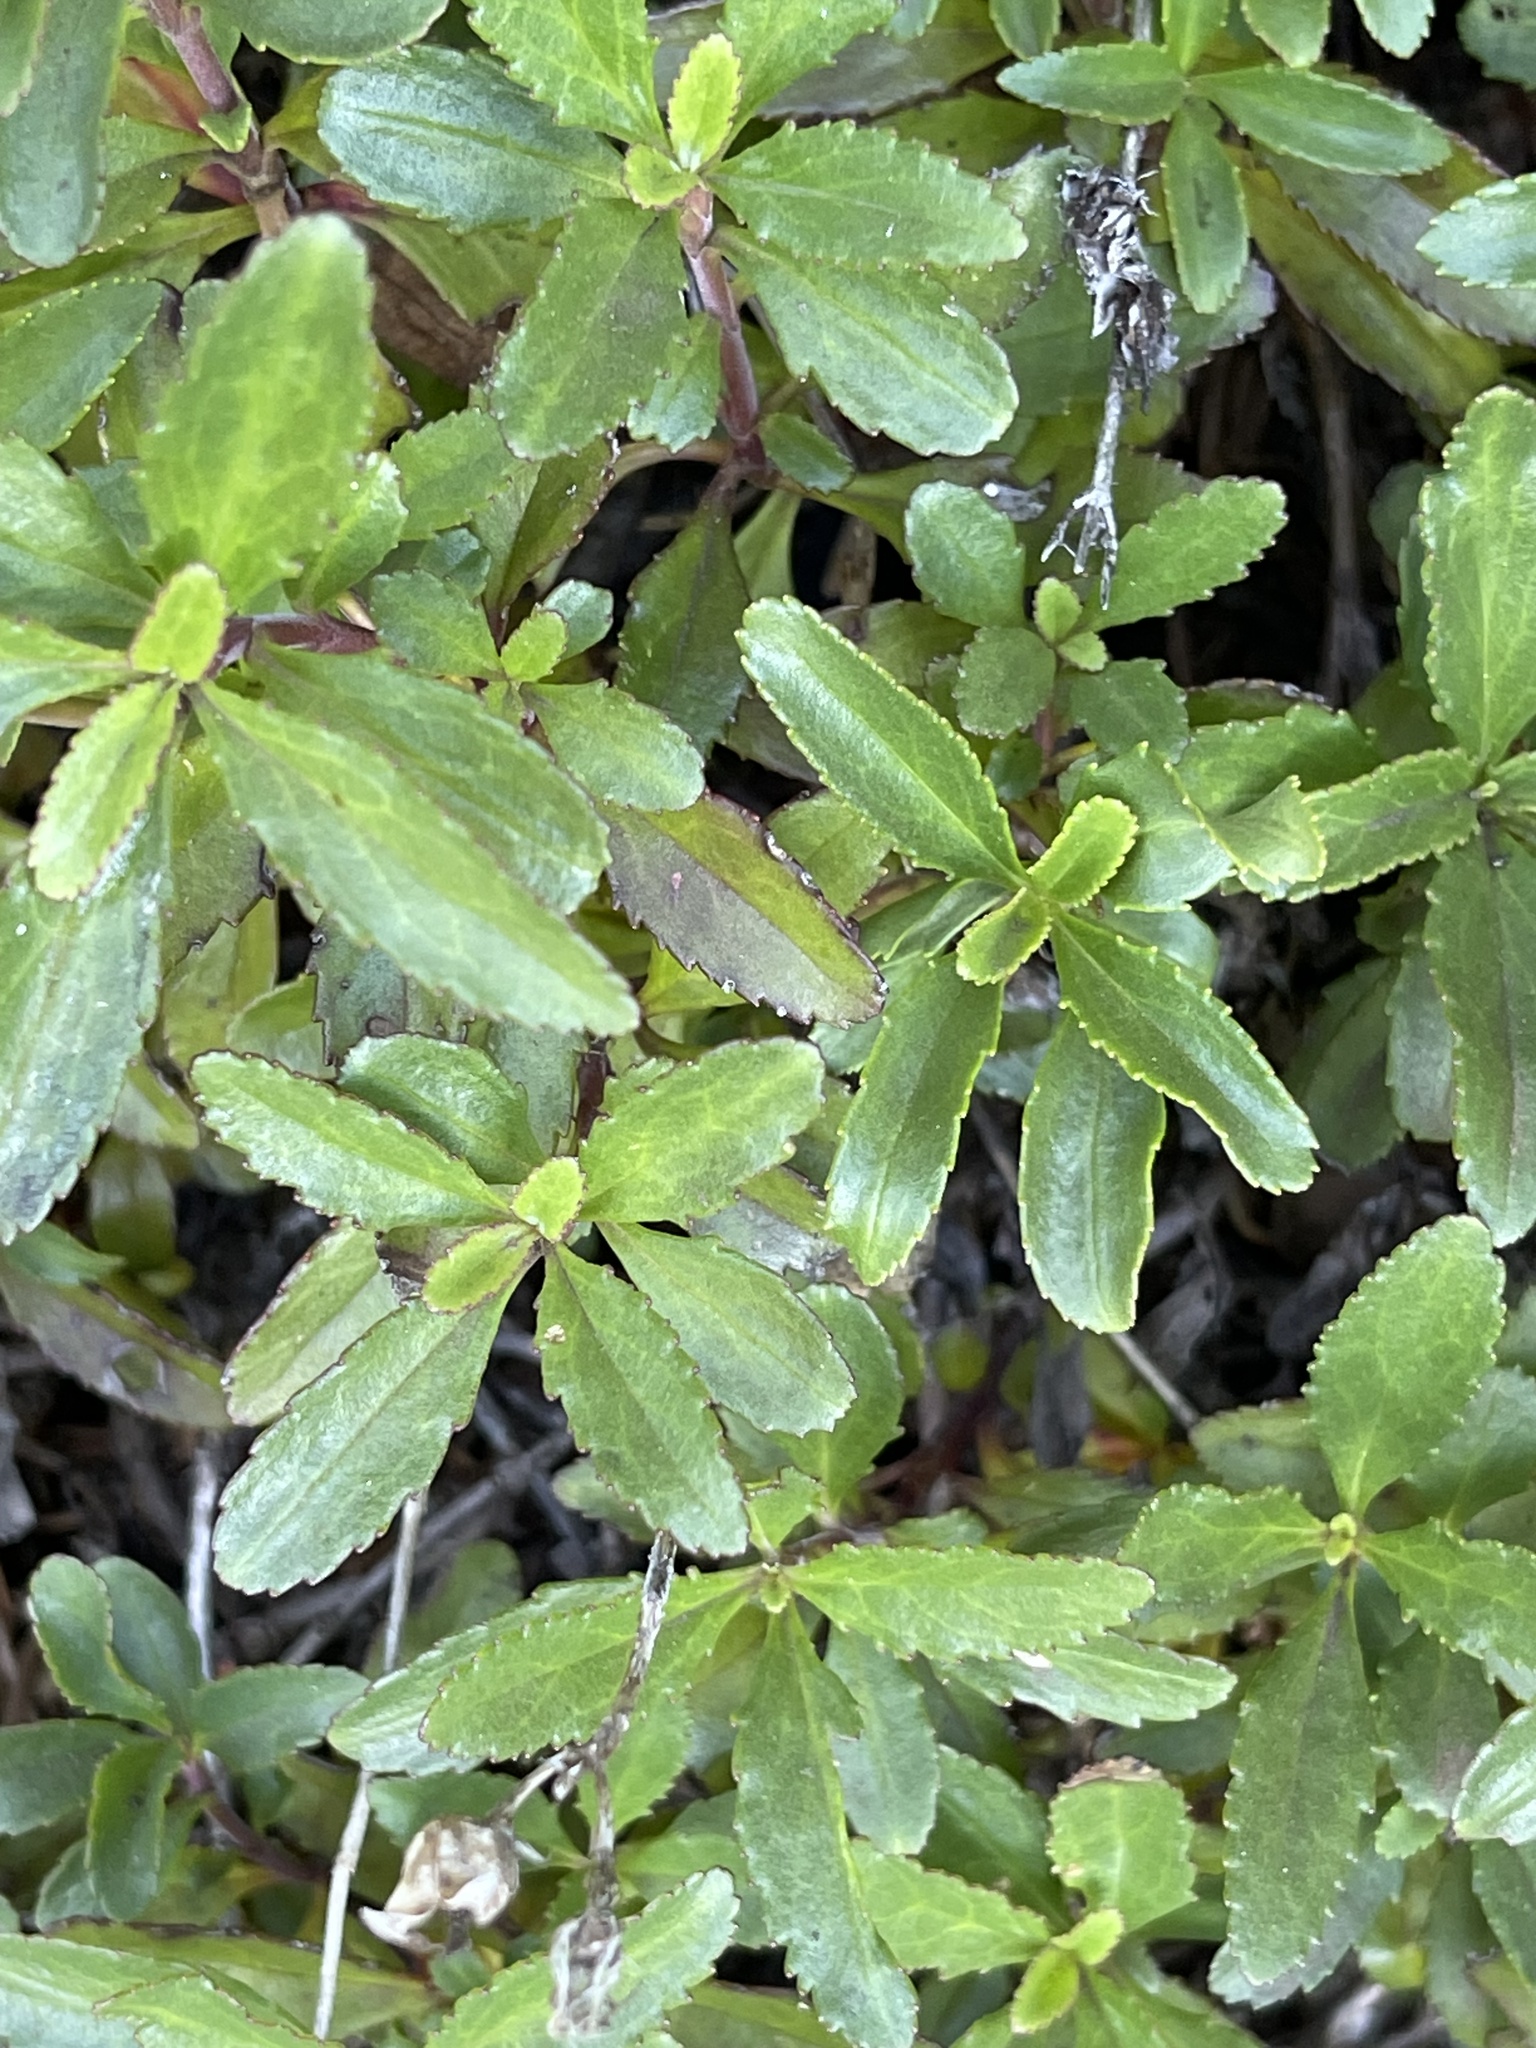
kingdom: Plantae
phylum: Tracheophyta
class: Magnoliopsida
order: Lamiales
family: Plantaginaceae
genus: Penstemon
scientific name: Penstemon cardwellii
